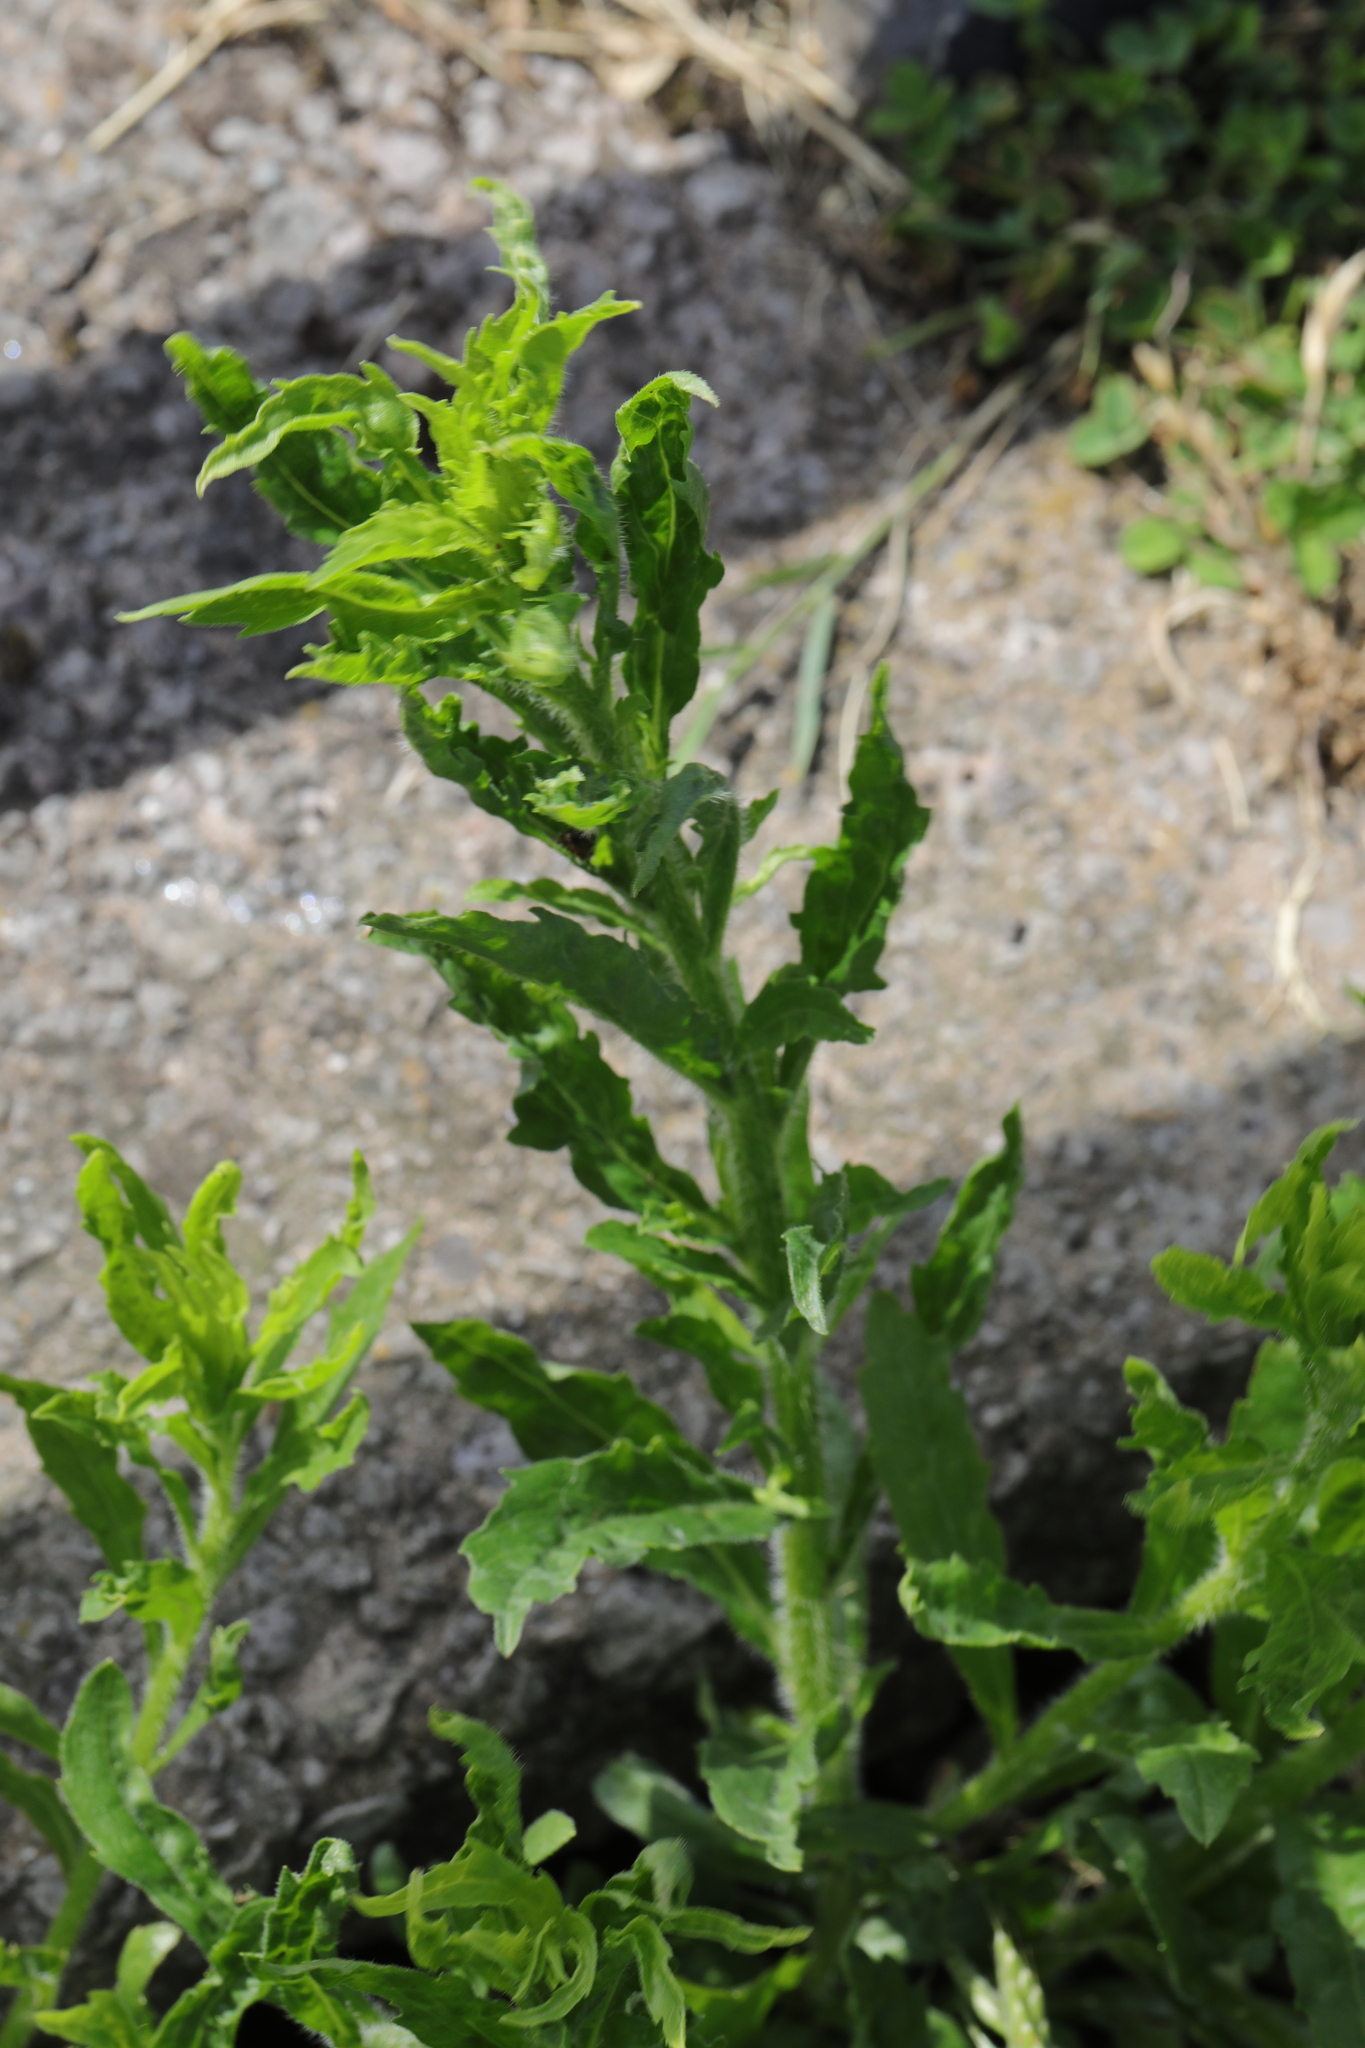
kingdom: Plantae
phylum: Tracheophyta
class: Magnoliopsida
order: Asterales
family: Asteraceae
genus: Erigeron
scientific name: Erigeron sumatrensis
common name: Daisy
